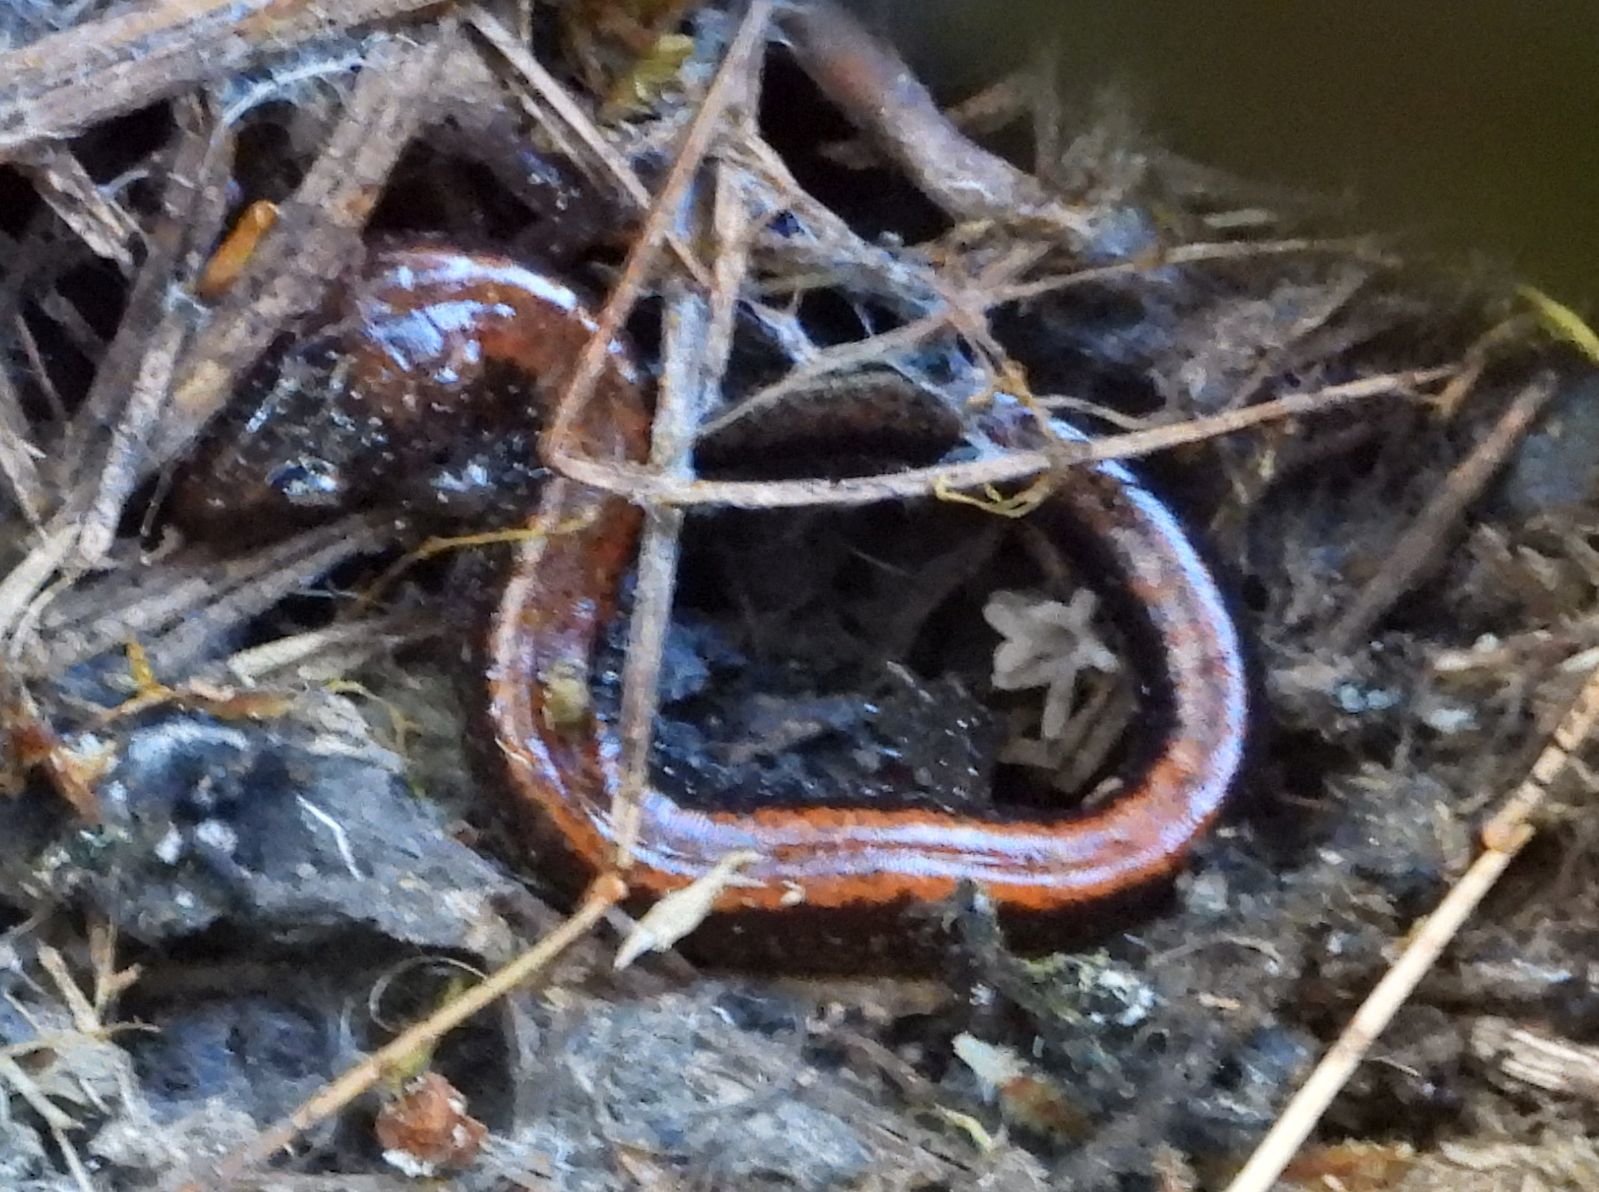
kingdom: Animalia
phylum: Chordata
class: Amphibia
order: Caudata
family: Plethodontidae
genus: Plethodon
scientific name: Plethodon cinereus
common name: Redback salamander
